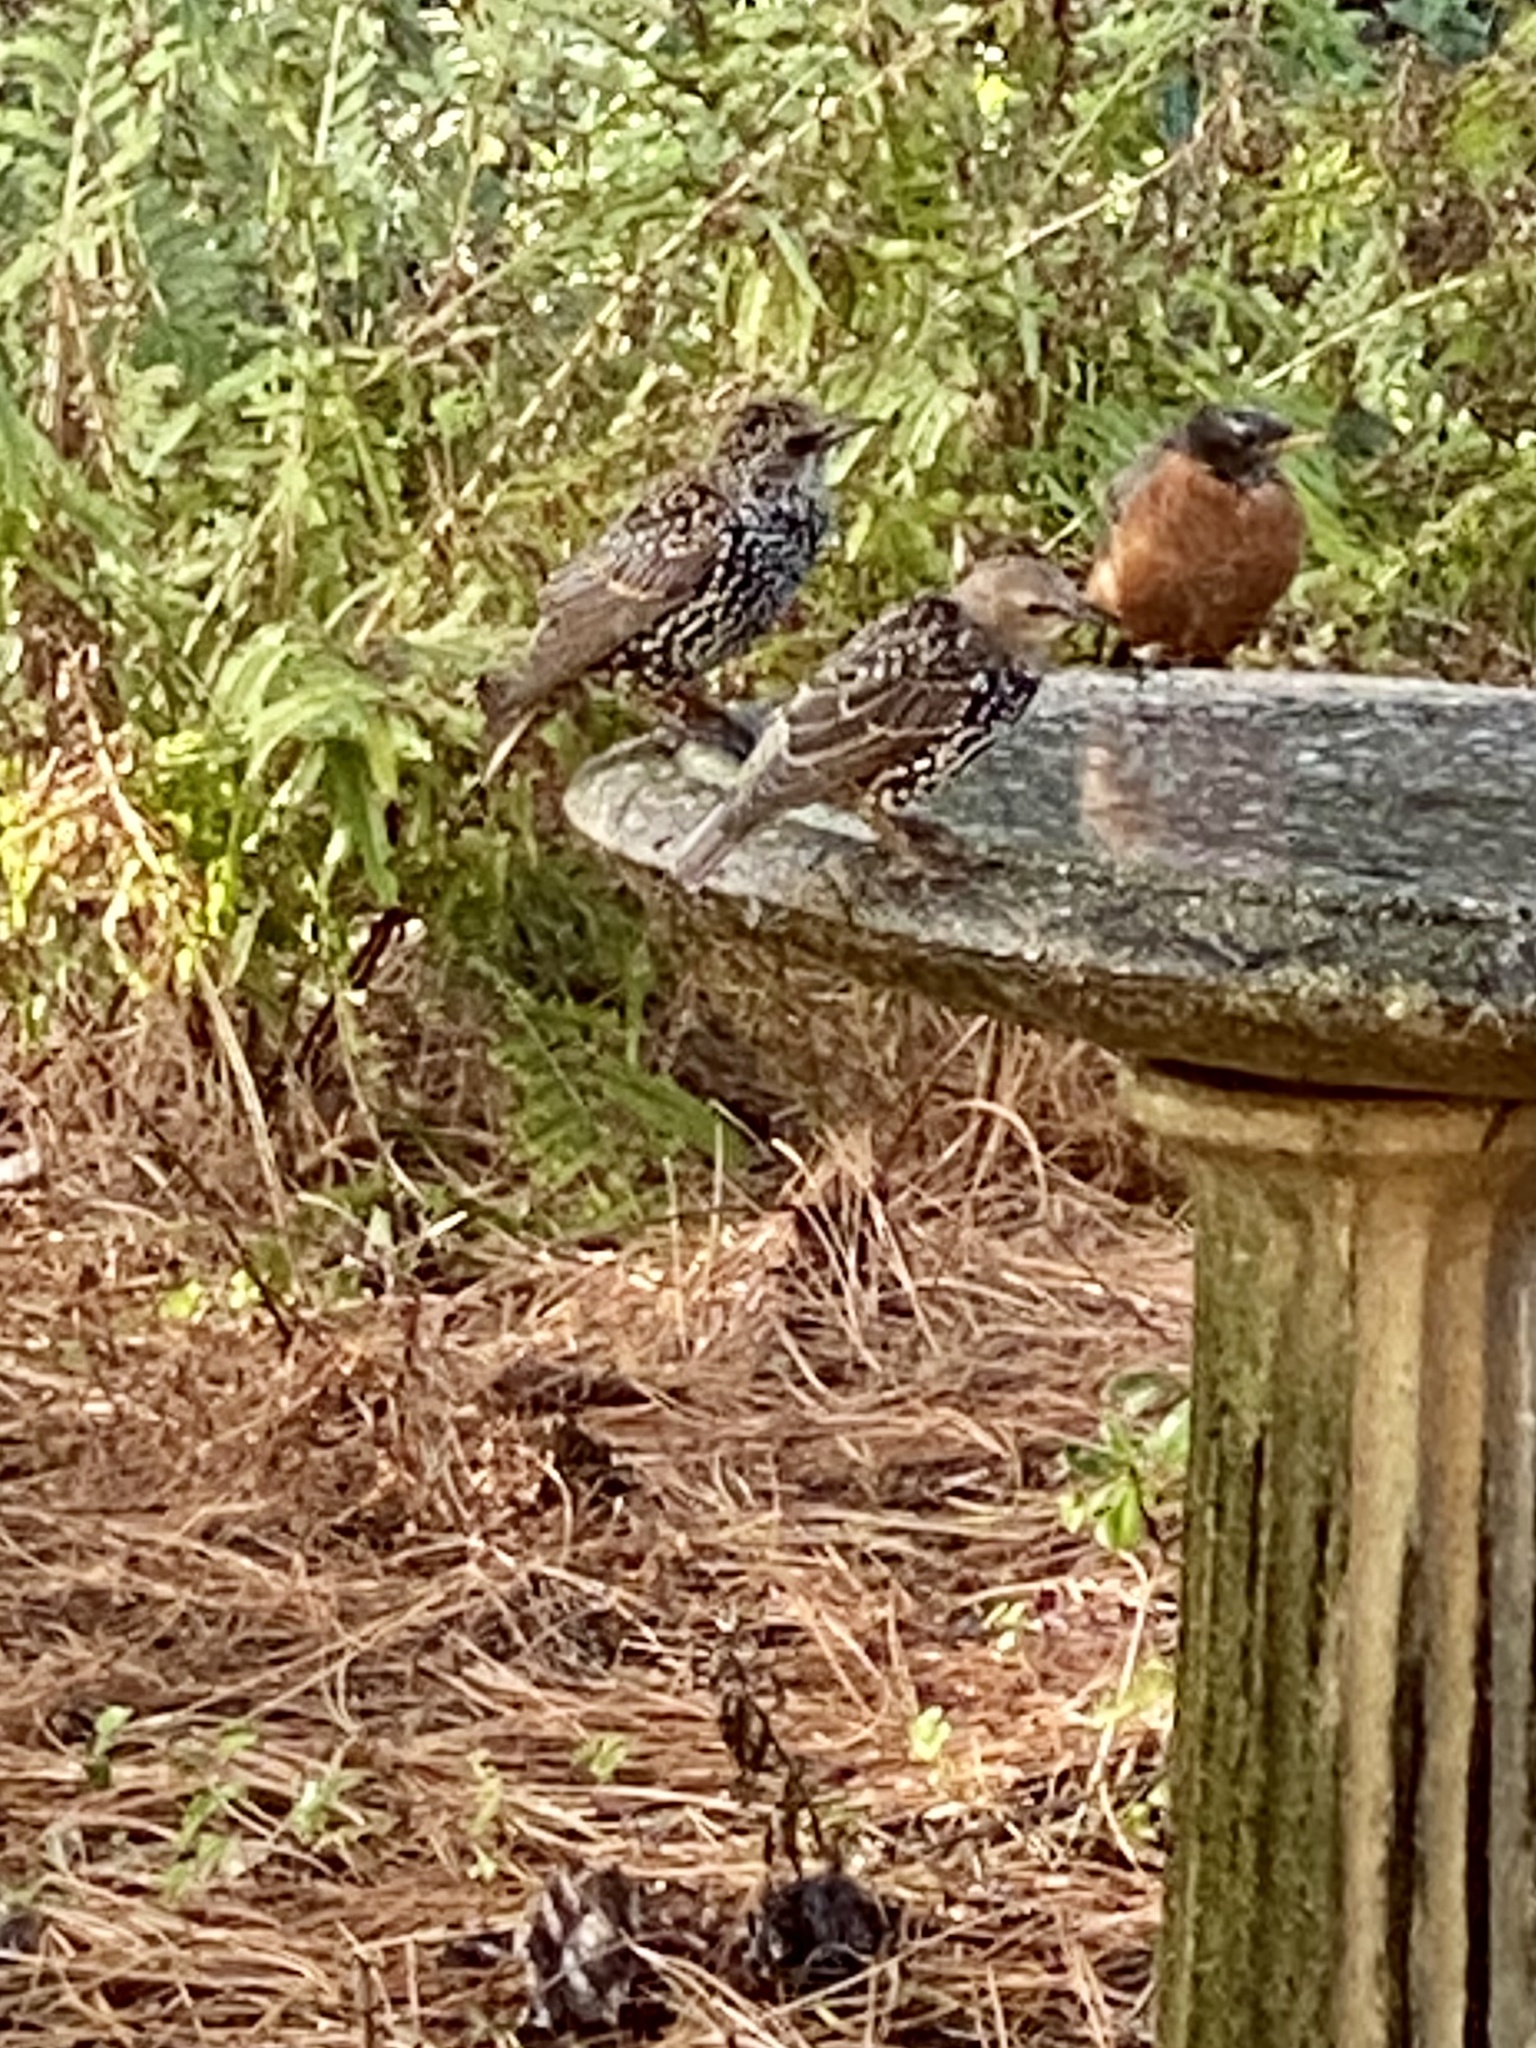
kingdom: Animalia
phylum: Chordata
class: Aves
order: Passeriformes
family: Sturnidae
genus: Sturnus
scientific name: Sturnus vulgaris
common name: Common starling
